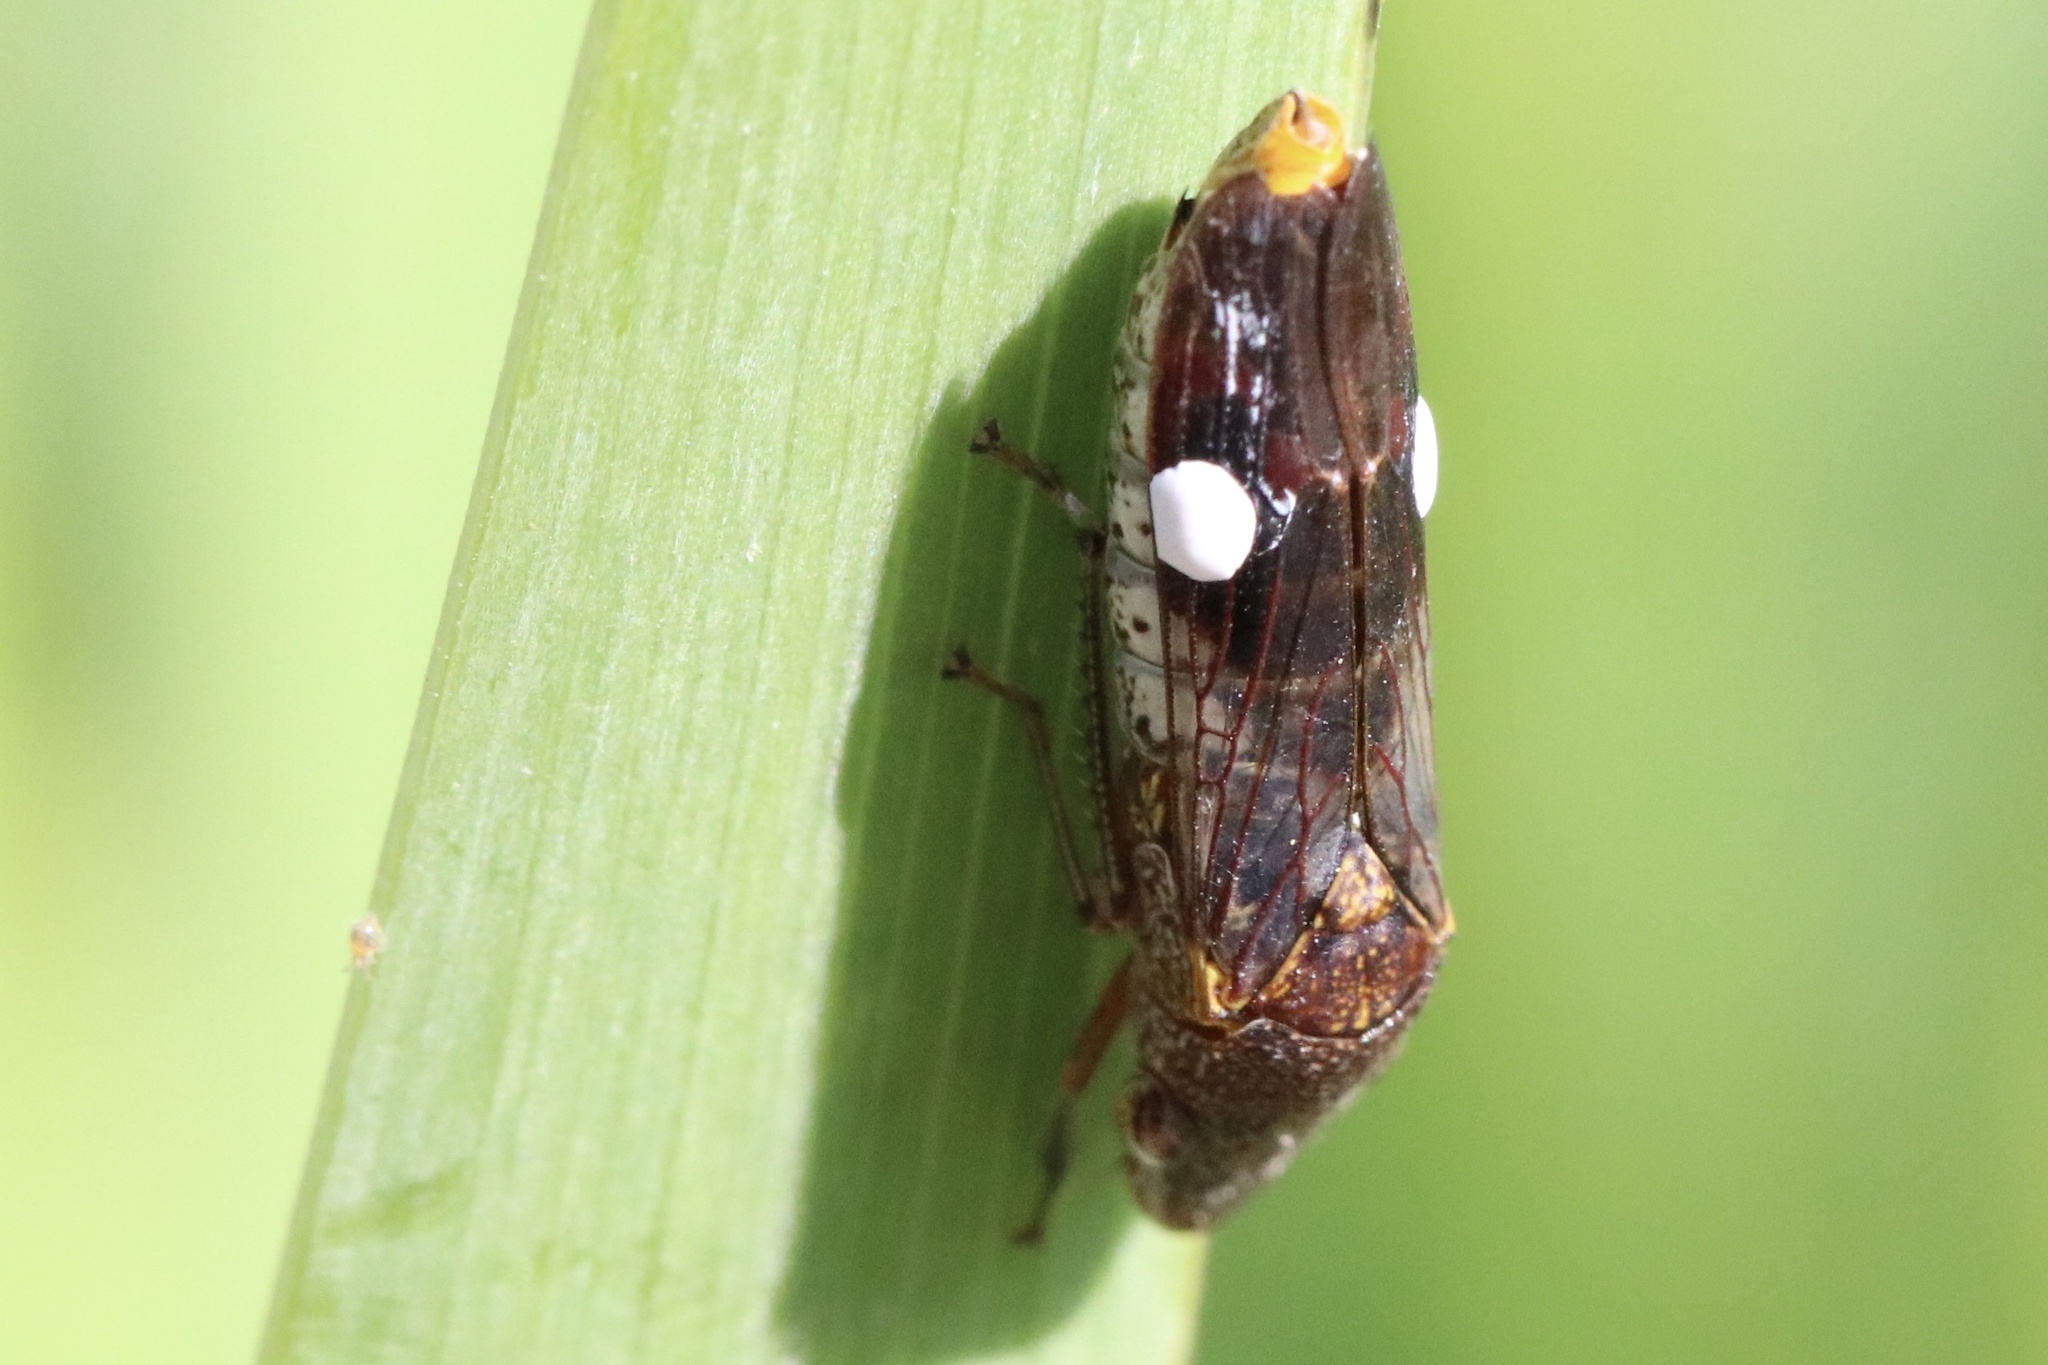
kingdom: Animalia
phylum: Arthropoda
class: Insecta
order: Hemiptera
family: Cicadellidae
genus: Homalodisca
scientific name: Homalodisca vitripennis
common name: Glassy-winged sharpshooter
